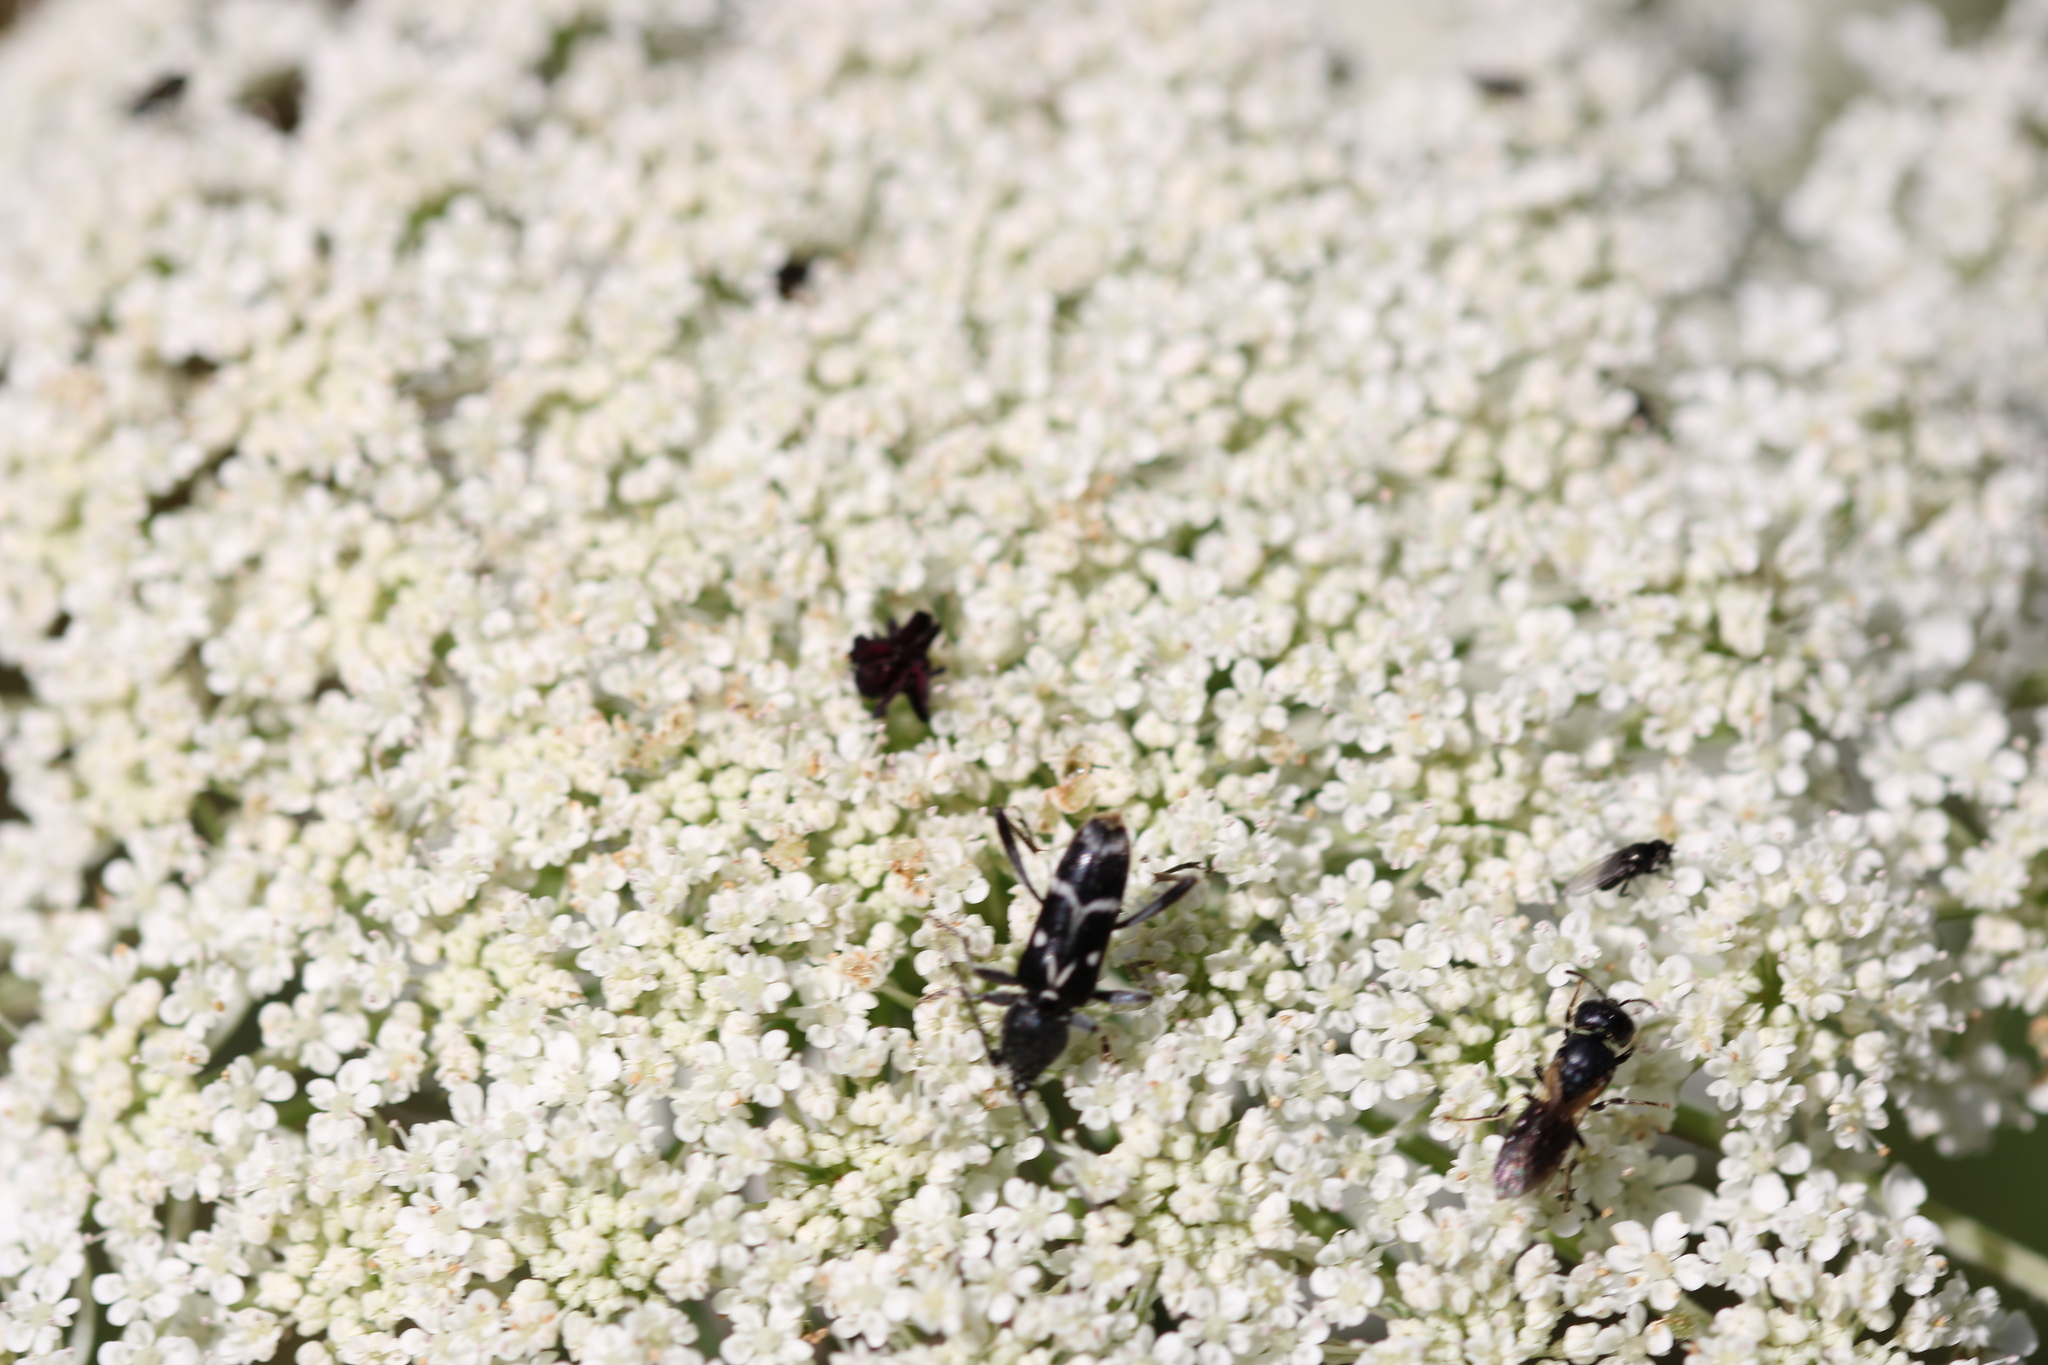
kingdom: Animalia
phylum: Arthropoda
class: Insecta
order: Coleoptera
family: Cerambycidae
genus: Chlorophorus
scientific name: Chlorophorus sartor
